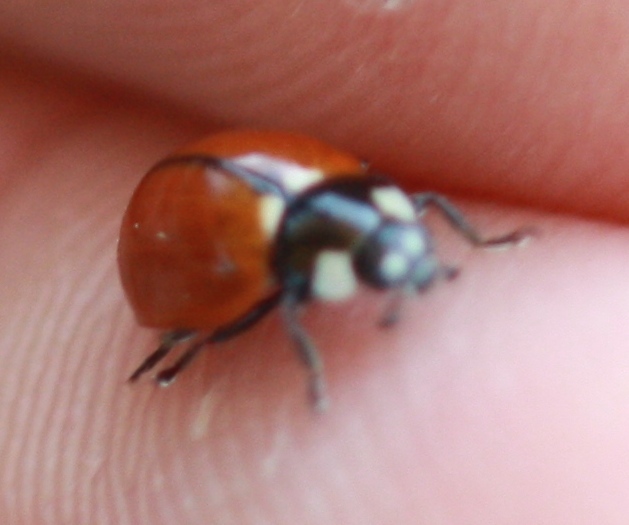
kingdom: Animalia
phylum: Arthropoda
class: Insecta
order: Coleoptera
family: Coccinellidae
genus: Coccinella
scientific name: Coccinella californica
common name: Lady beetle
